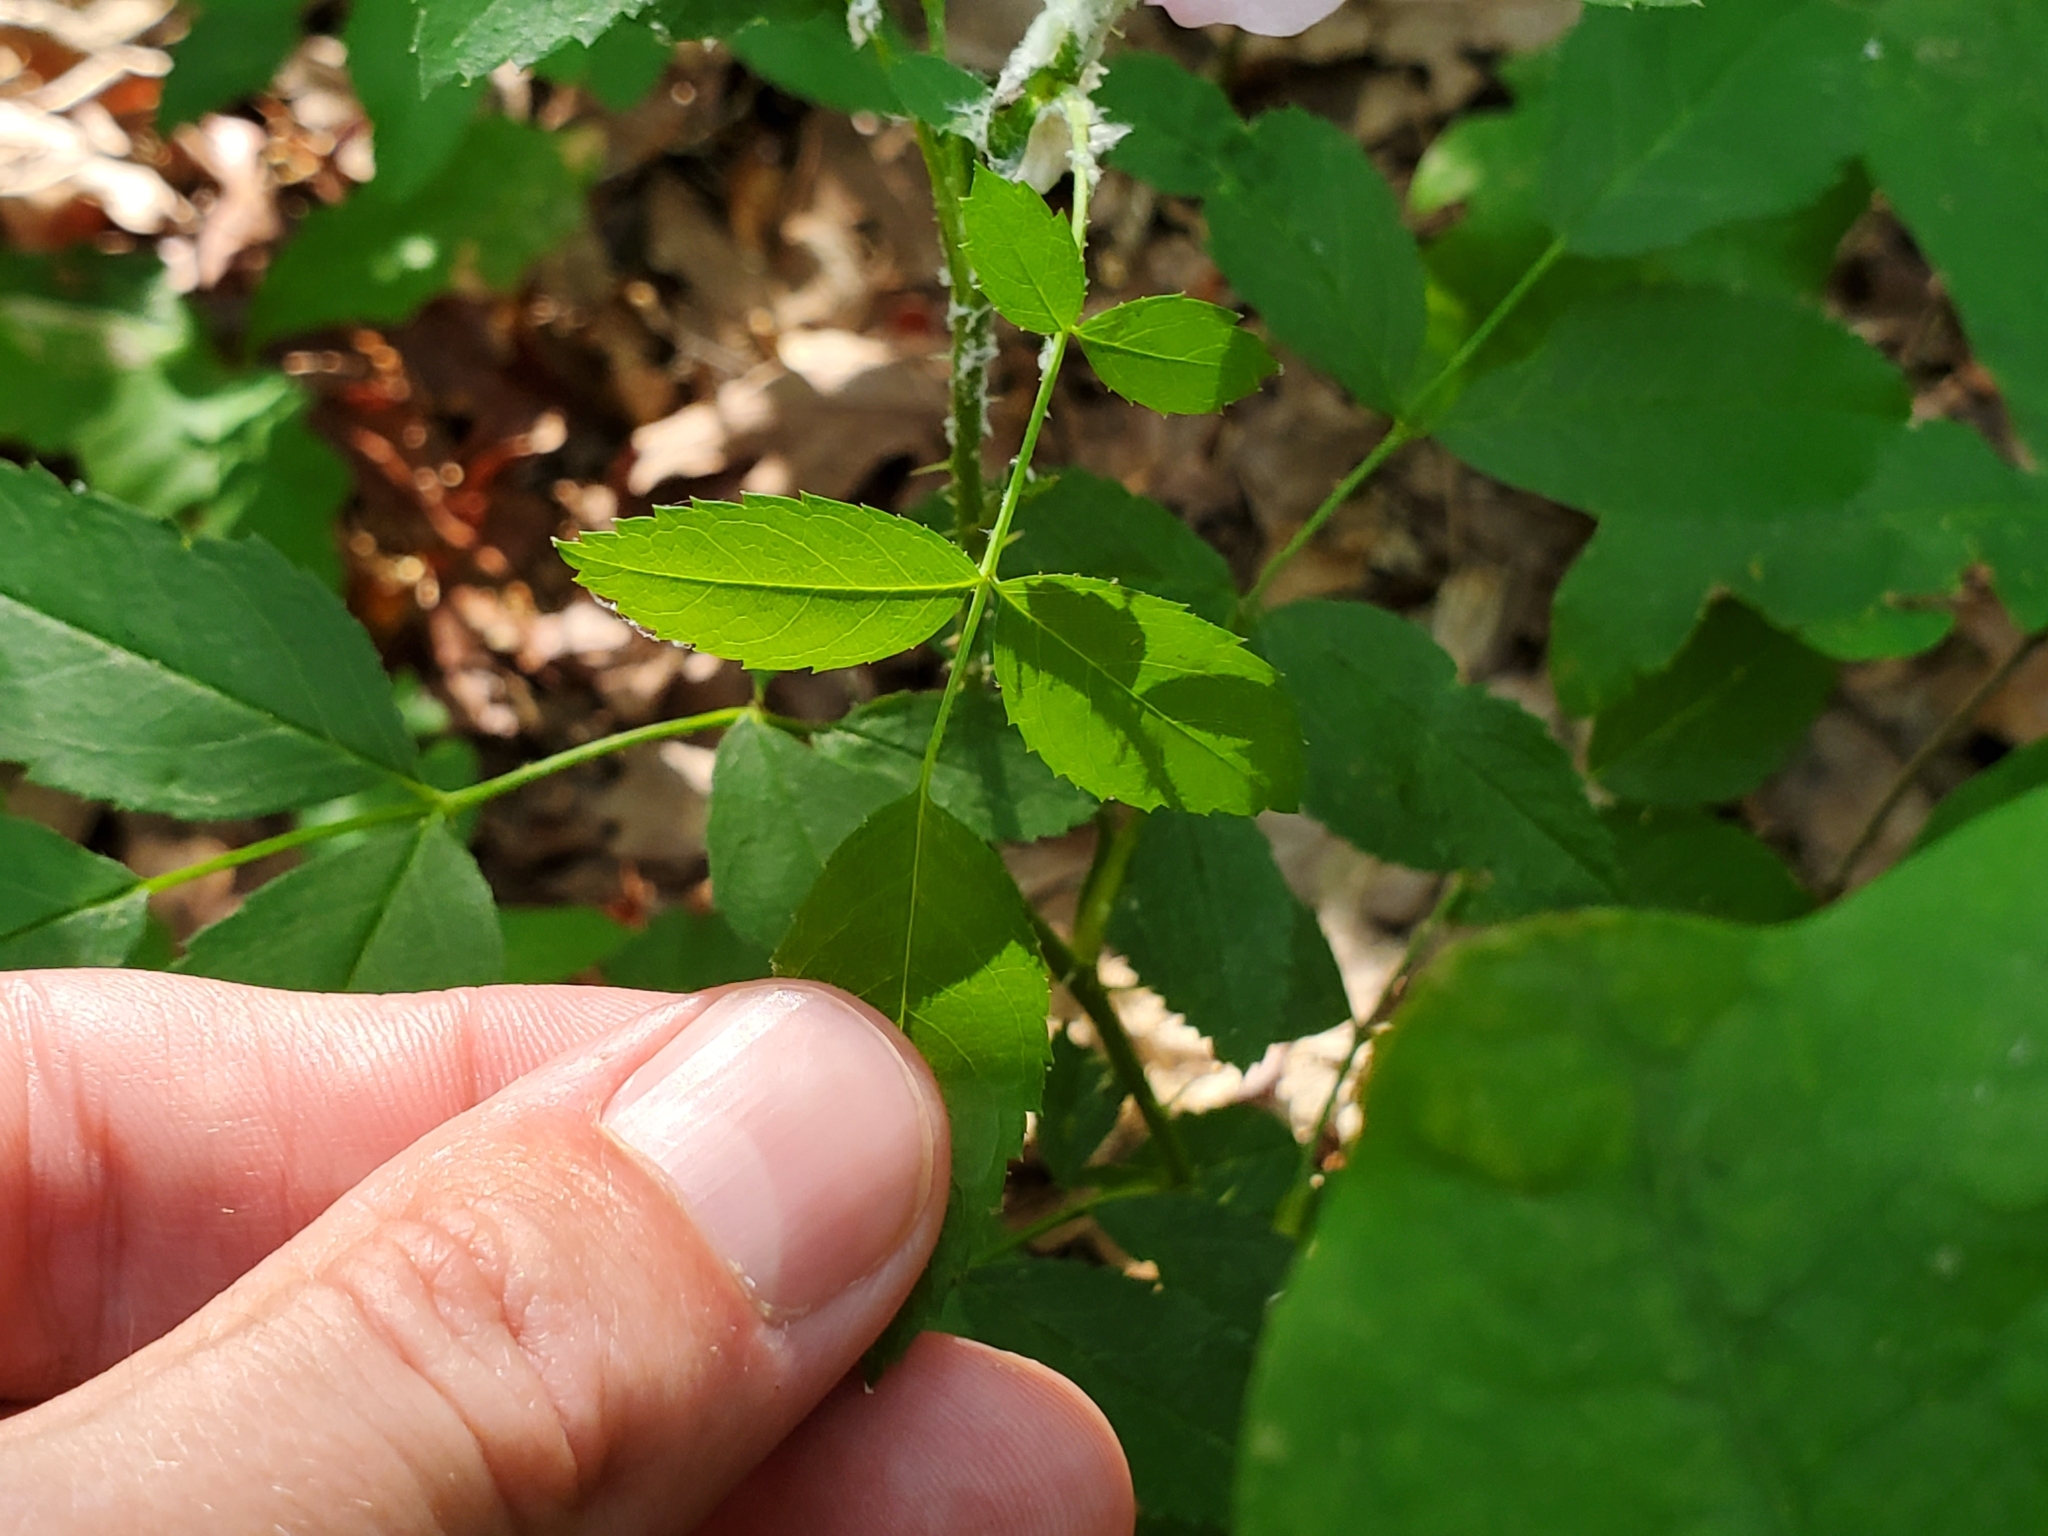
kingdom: Plantae
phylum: Tracheophyta
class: Magnoliopsida
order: Rosales
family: Rosaceae
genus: Rosa
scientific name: Rosa carolina
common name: Pasture rose
